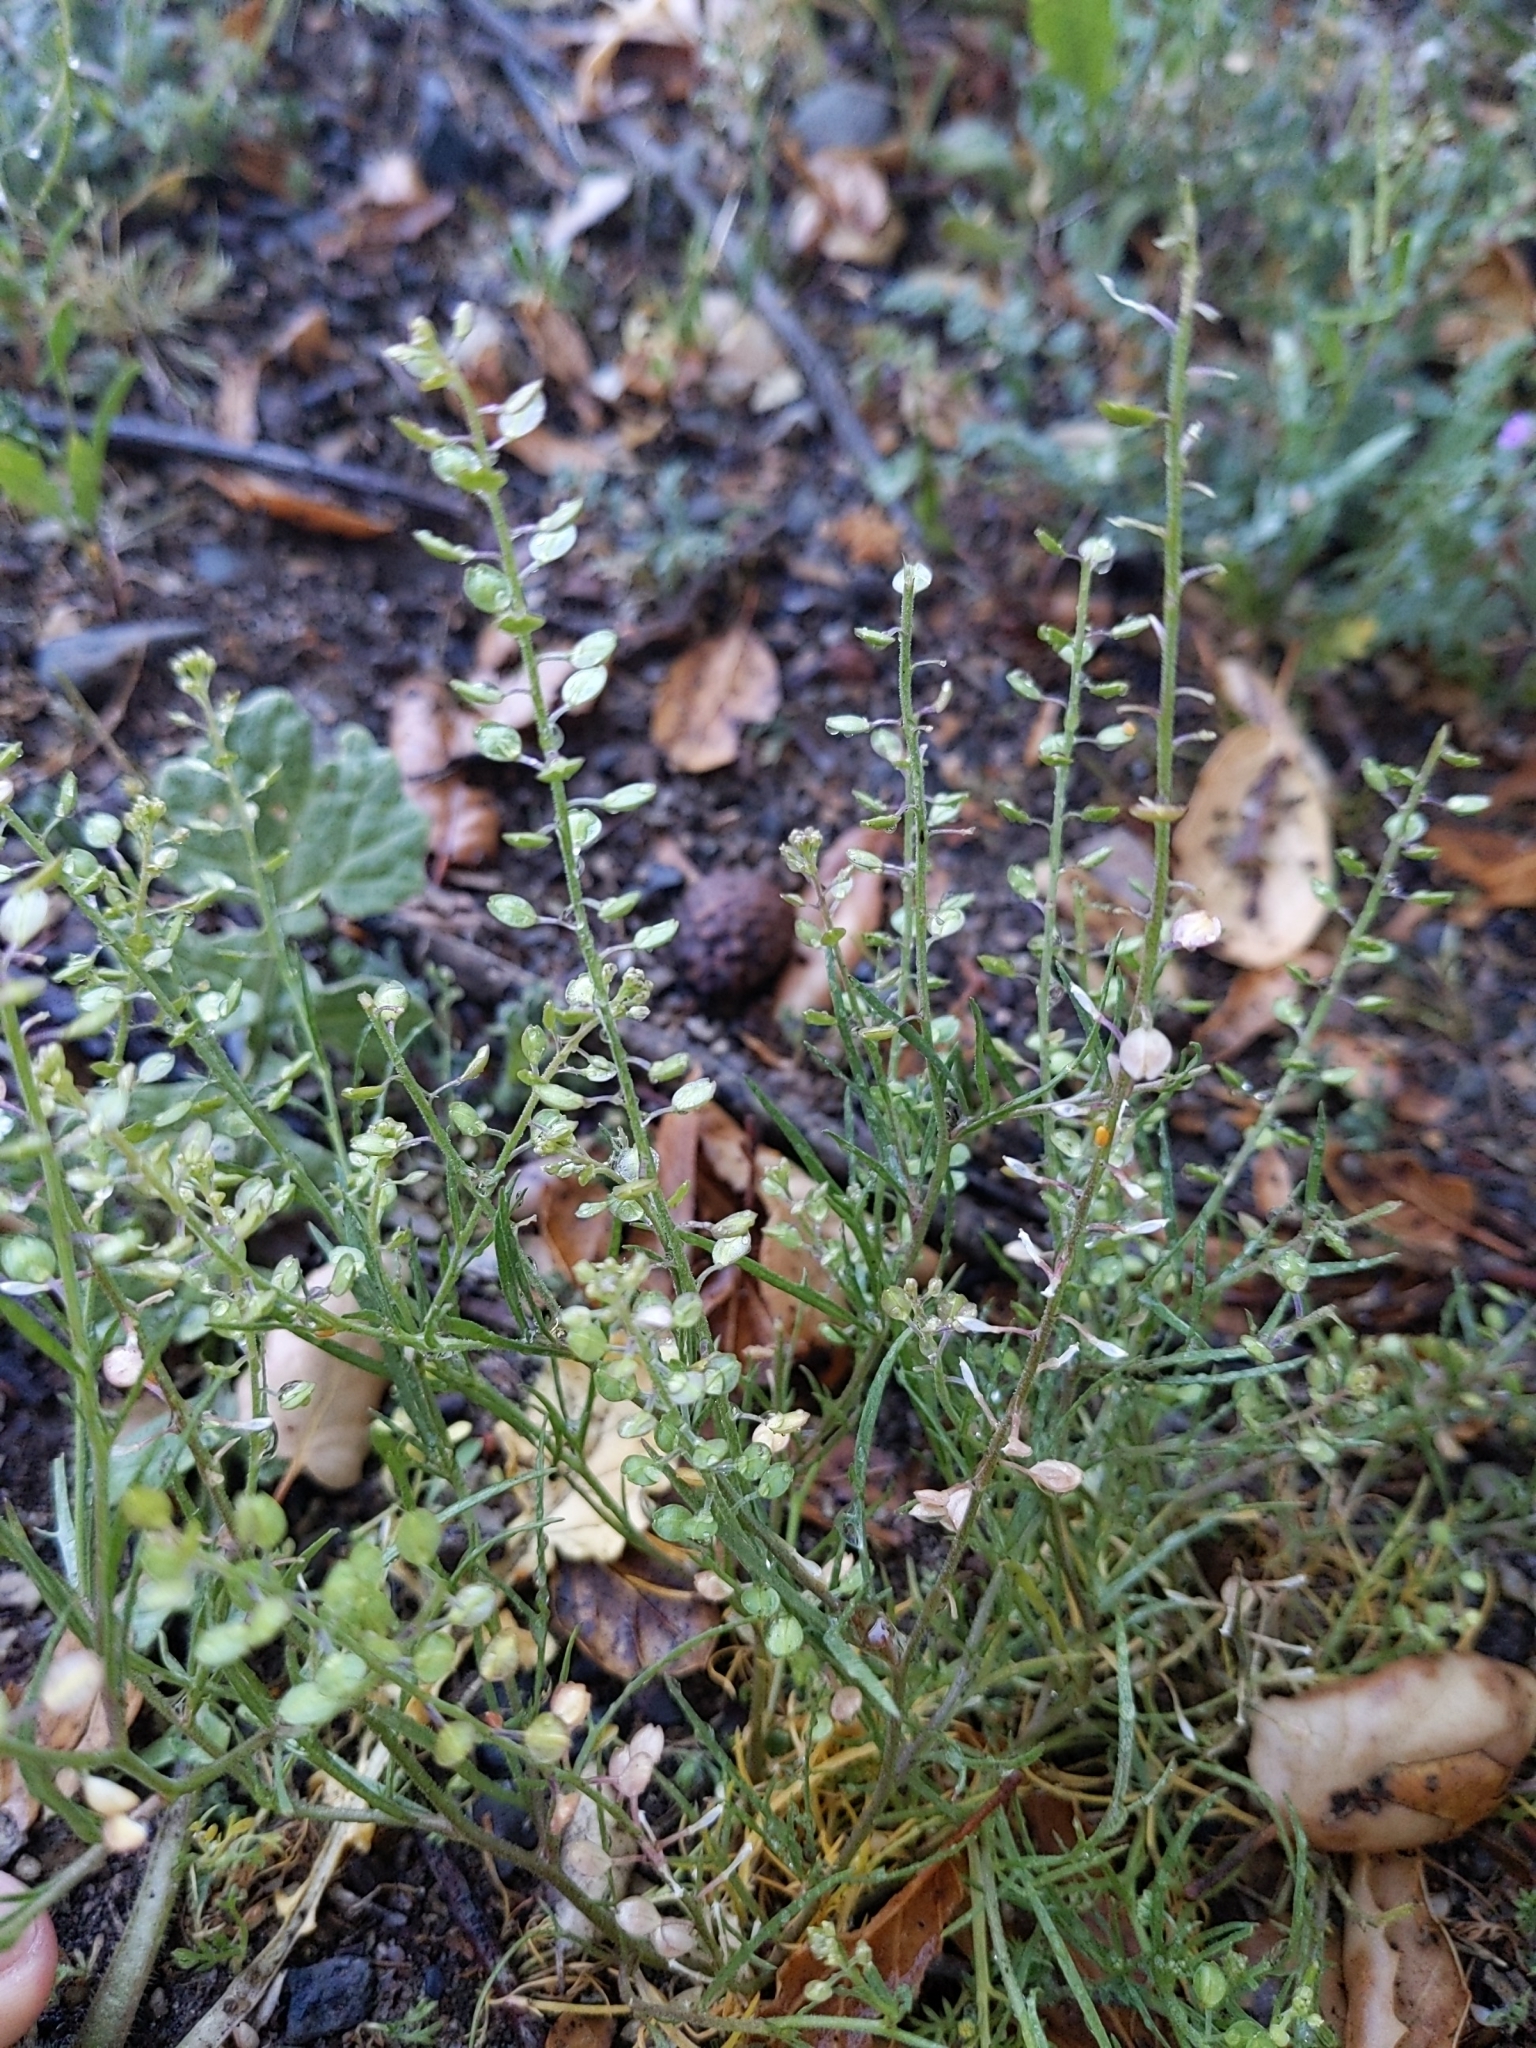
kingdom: Plantae
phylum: Tracheophyta
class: Magnoliopsida
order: Brassicales
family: Brassicaceae
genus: Lepidium
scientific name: Lepidium nitidum
